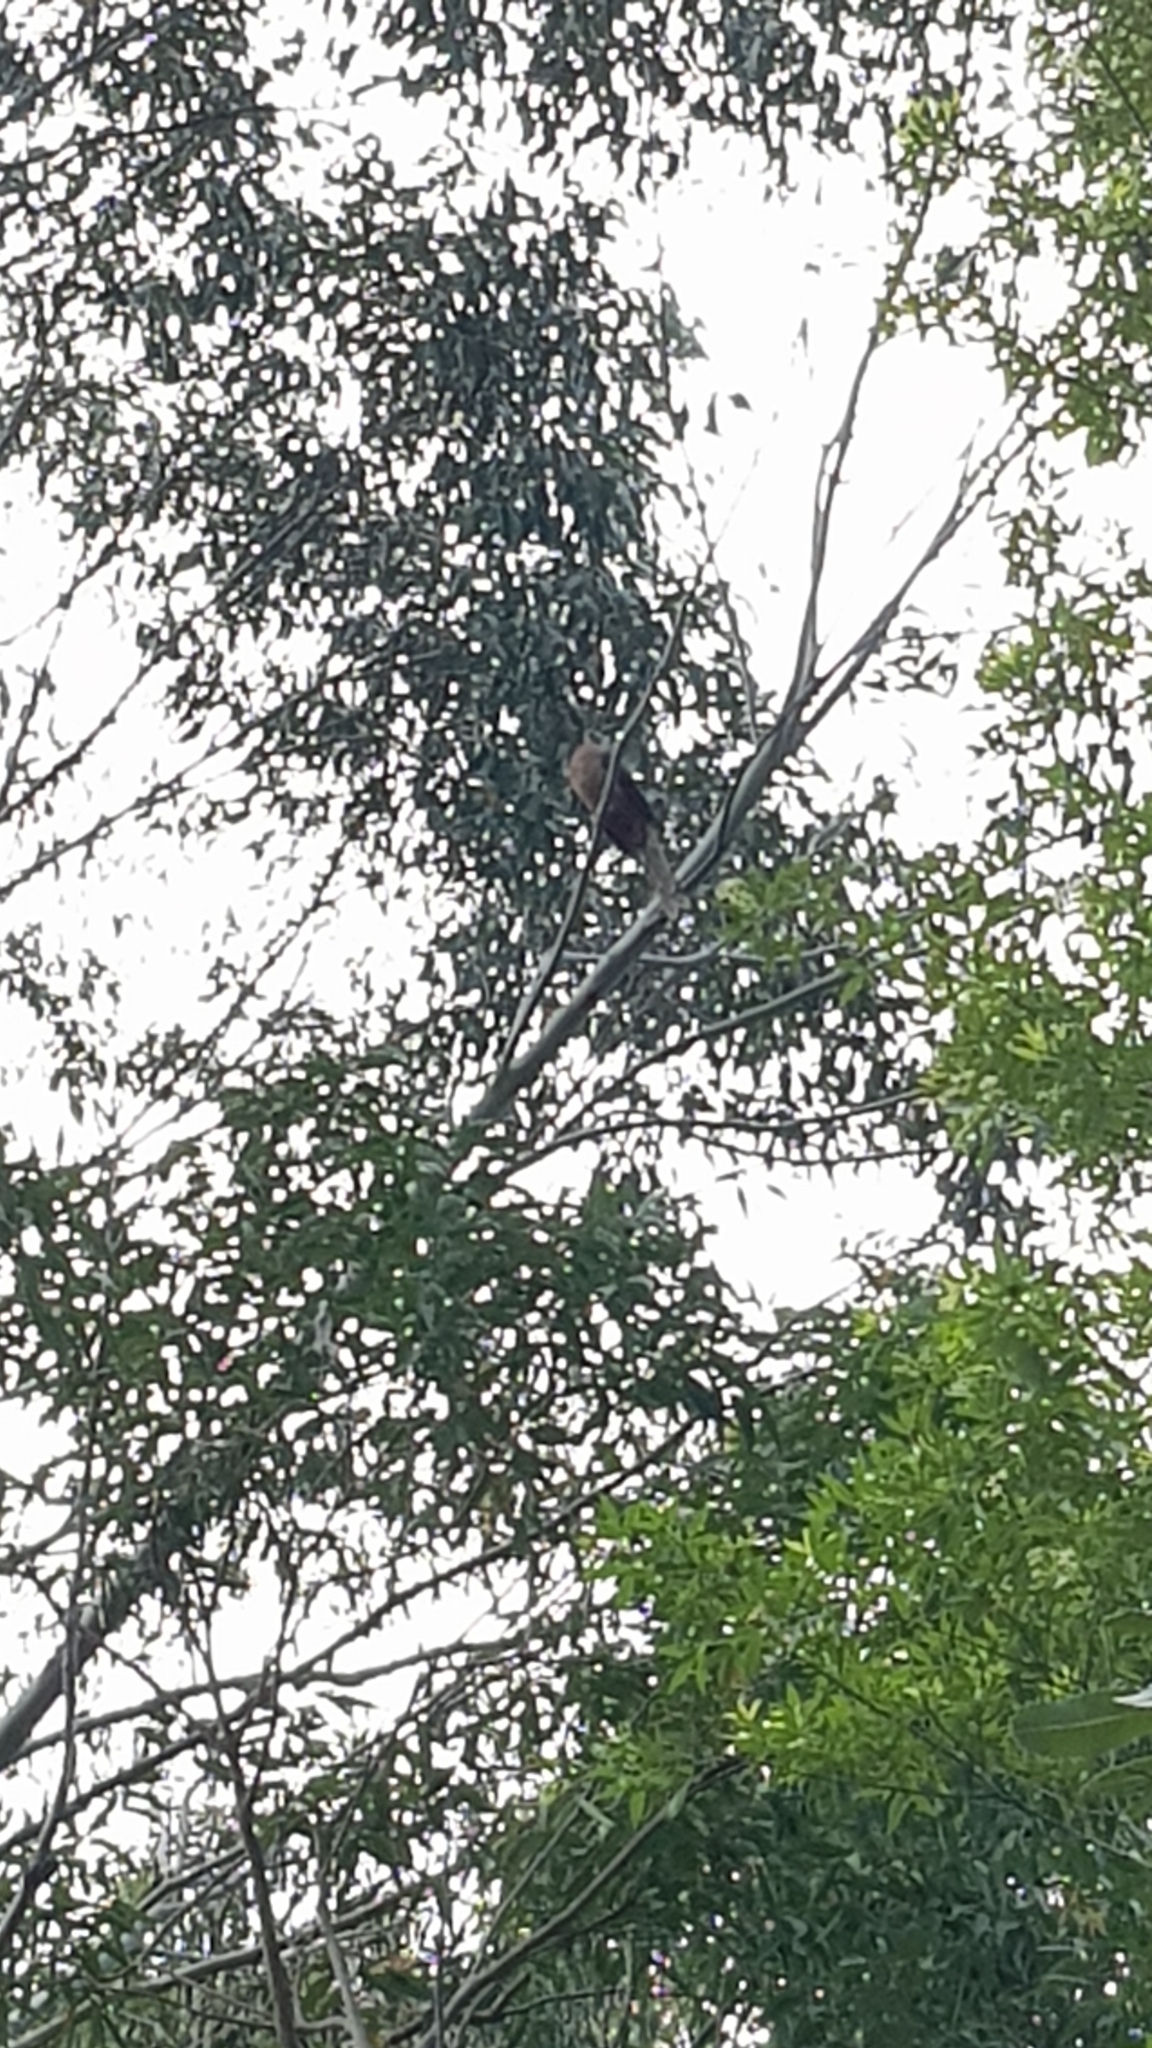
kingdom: Animalia
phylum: Chordata
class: Aves
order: Columbiformes
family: Columbidae
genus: Macropygia
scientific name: Macropygia phasianella
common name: Brown cuckoo-dove
